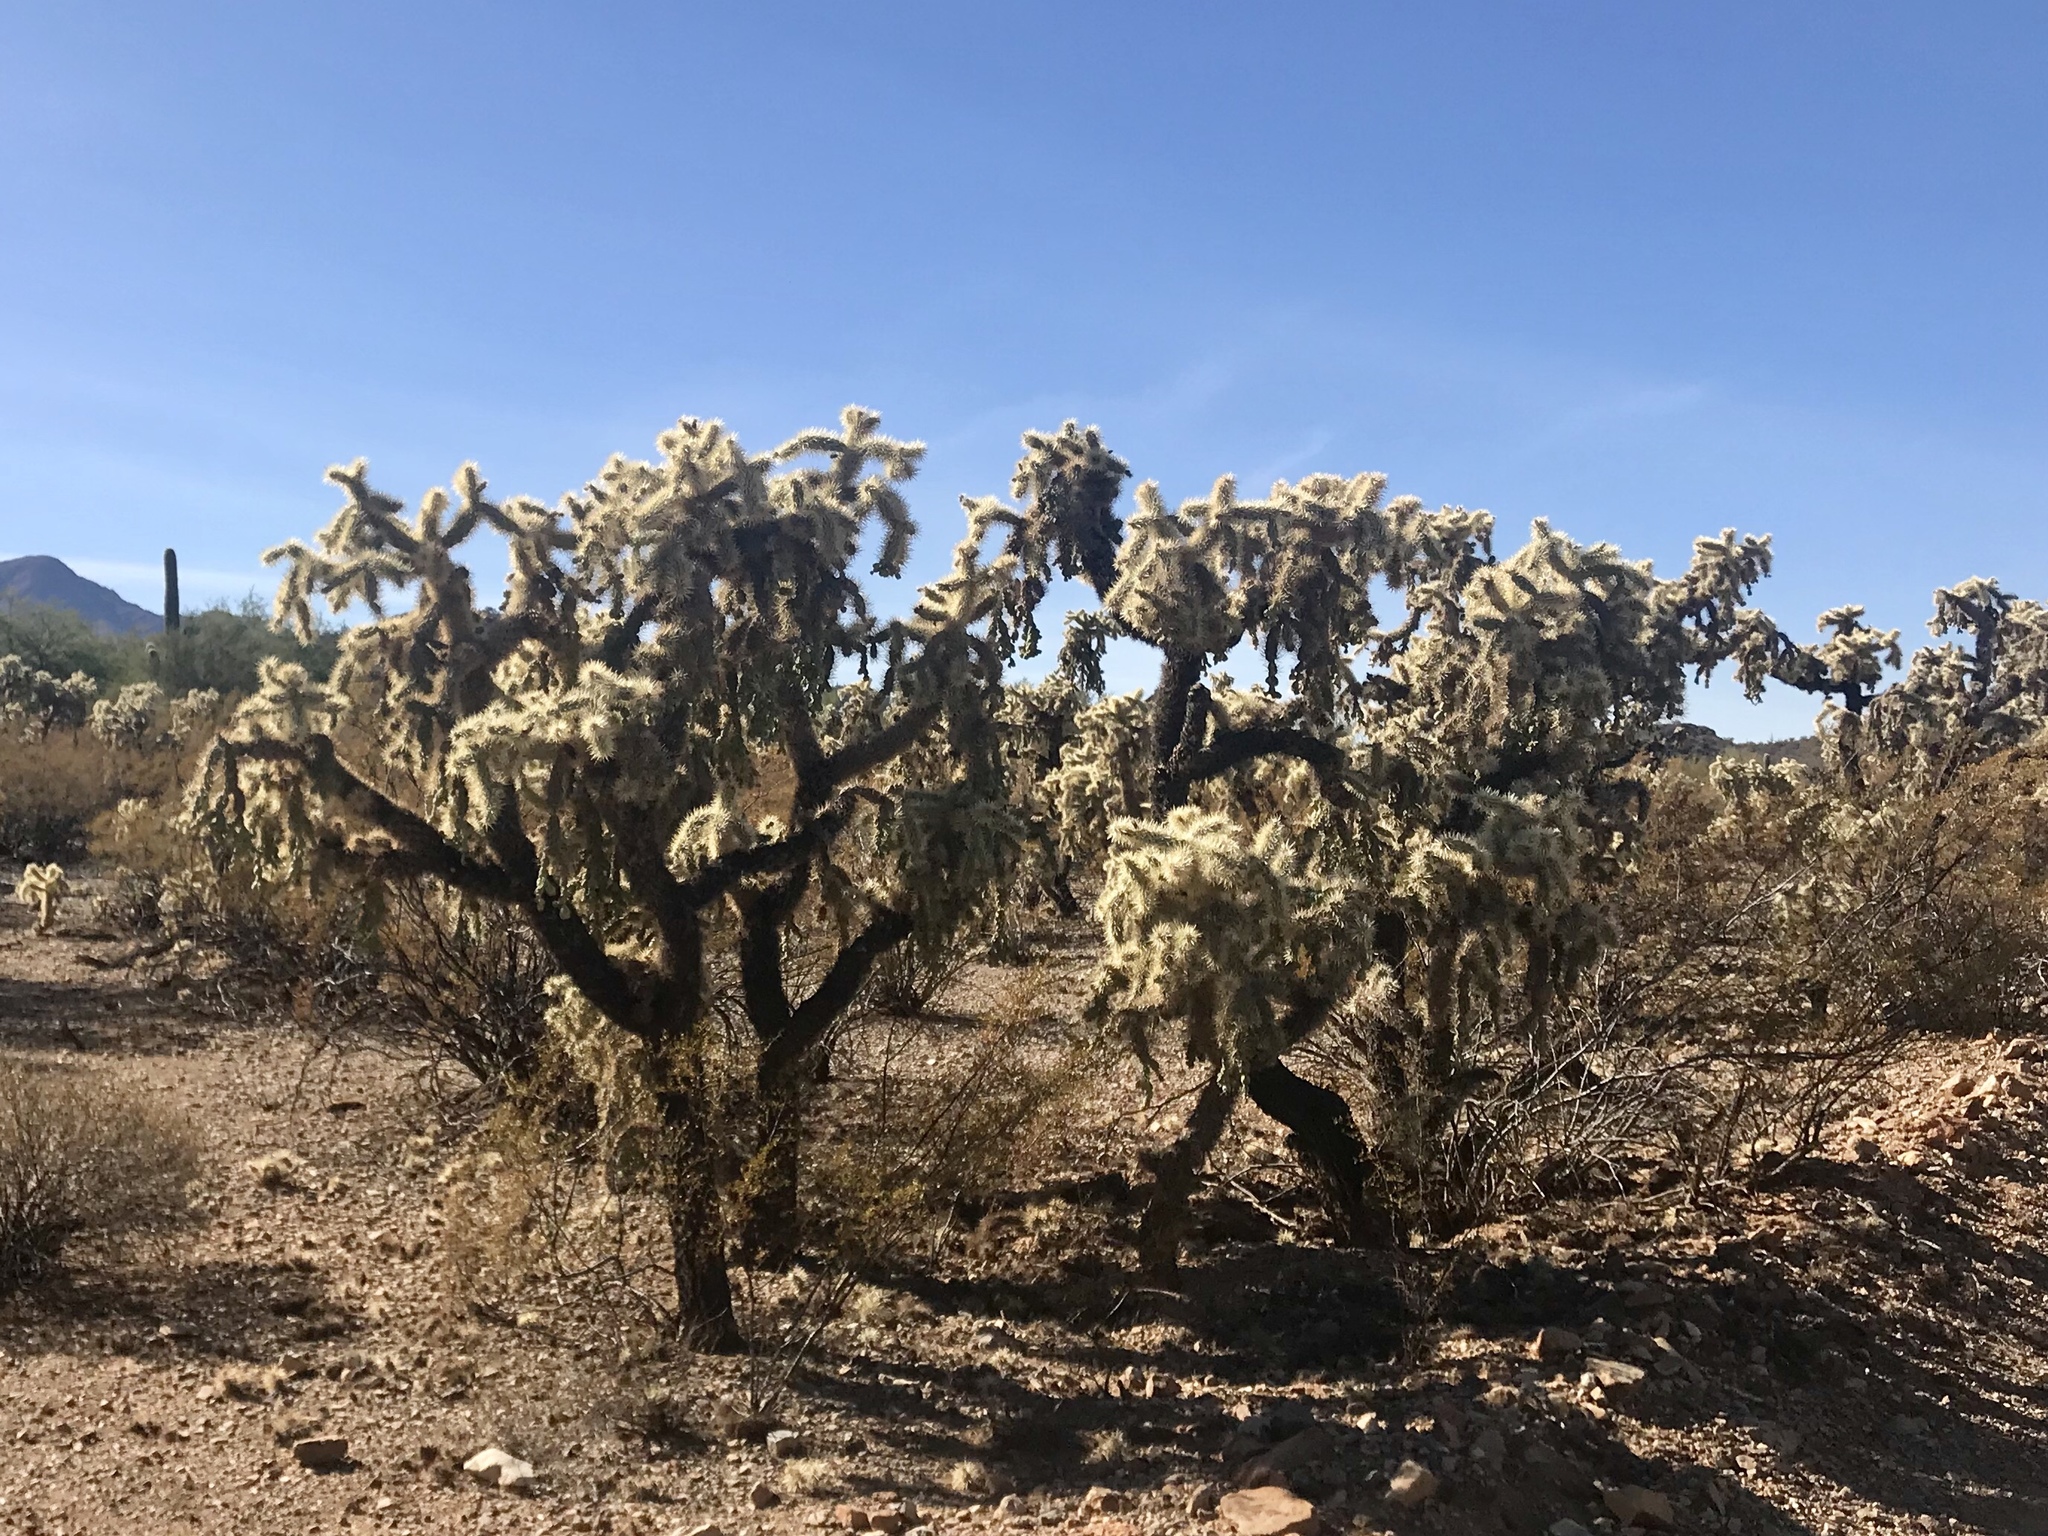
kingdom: Plantae
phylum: Tracheophyta
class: Magnoliopsida
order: Caryophyllales
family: Cactaceae
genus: Cylindropuntia
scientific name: Cylindropuntia fulgida
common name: Jumping cholla
